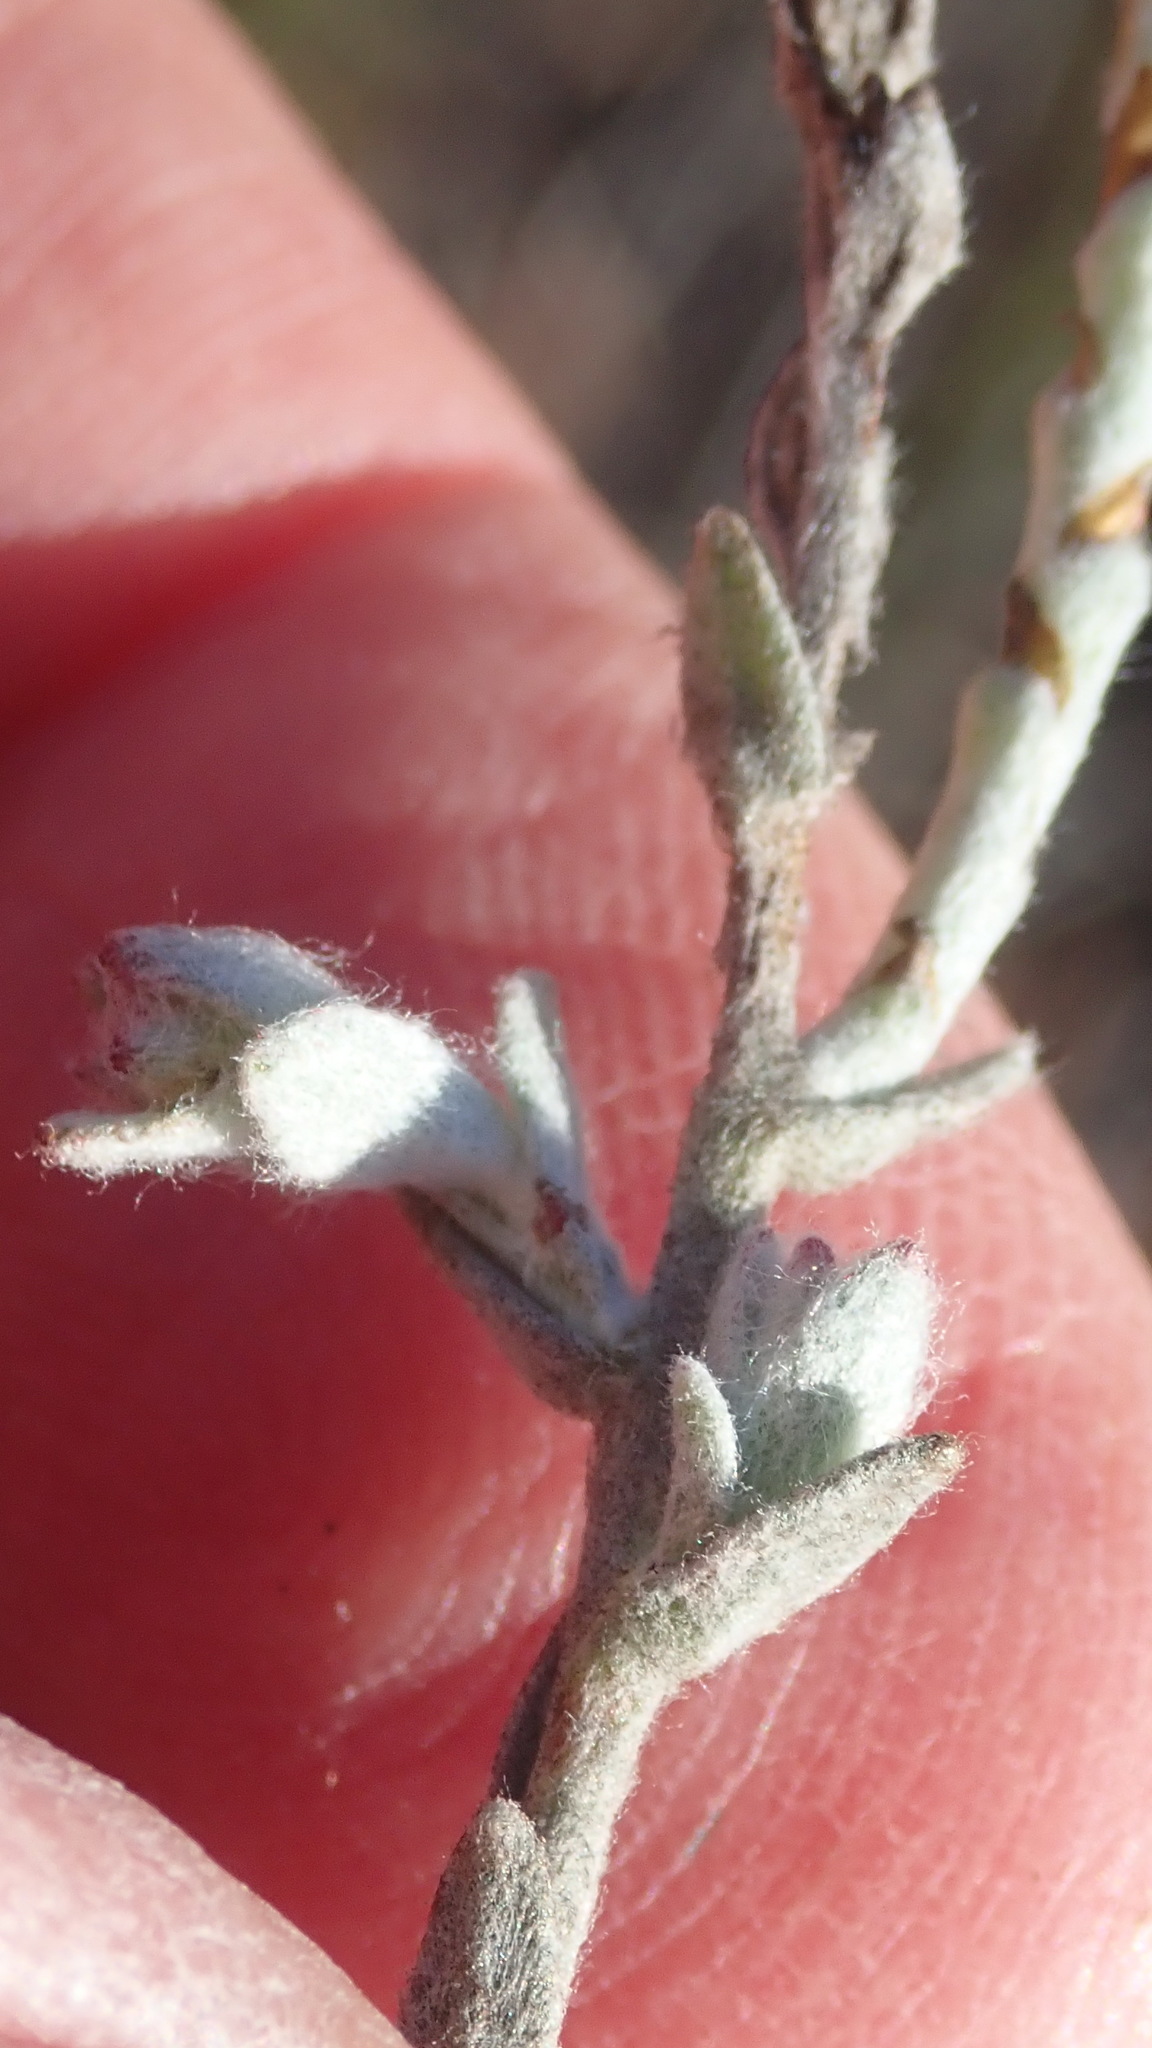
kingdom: Plantae
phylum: Tracheophyta
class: Magnoliopsida
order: Asterales
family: Asteraceae
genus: Syncarpha
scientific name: Syncarpha canescens
